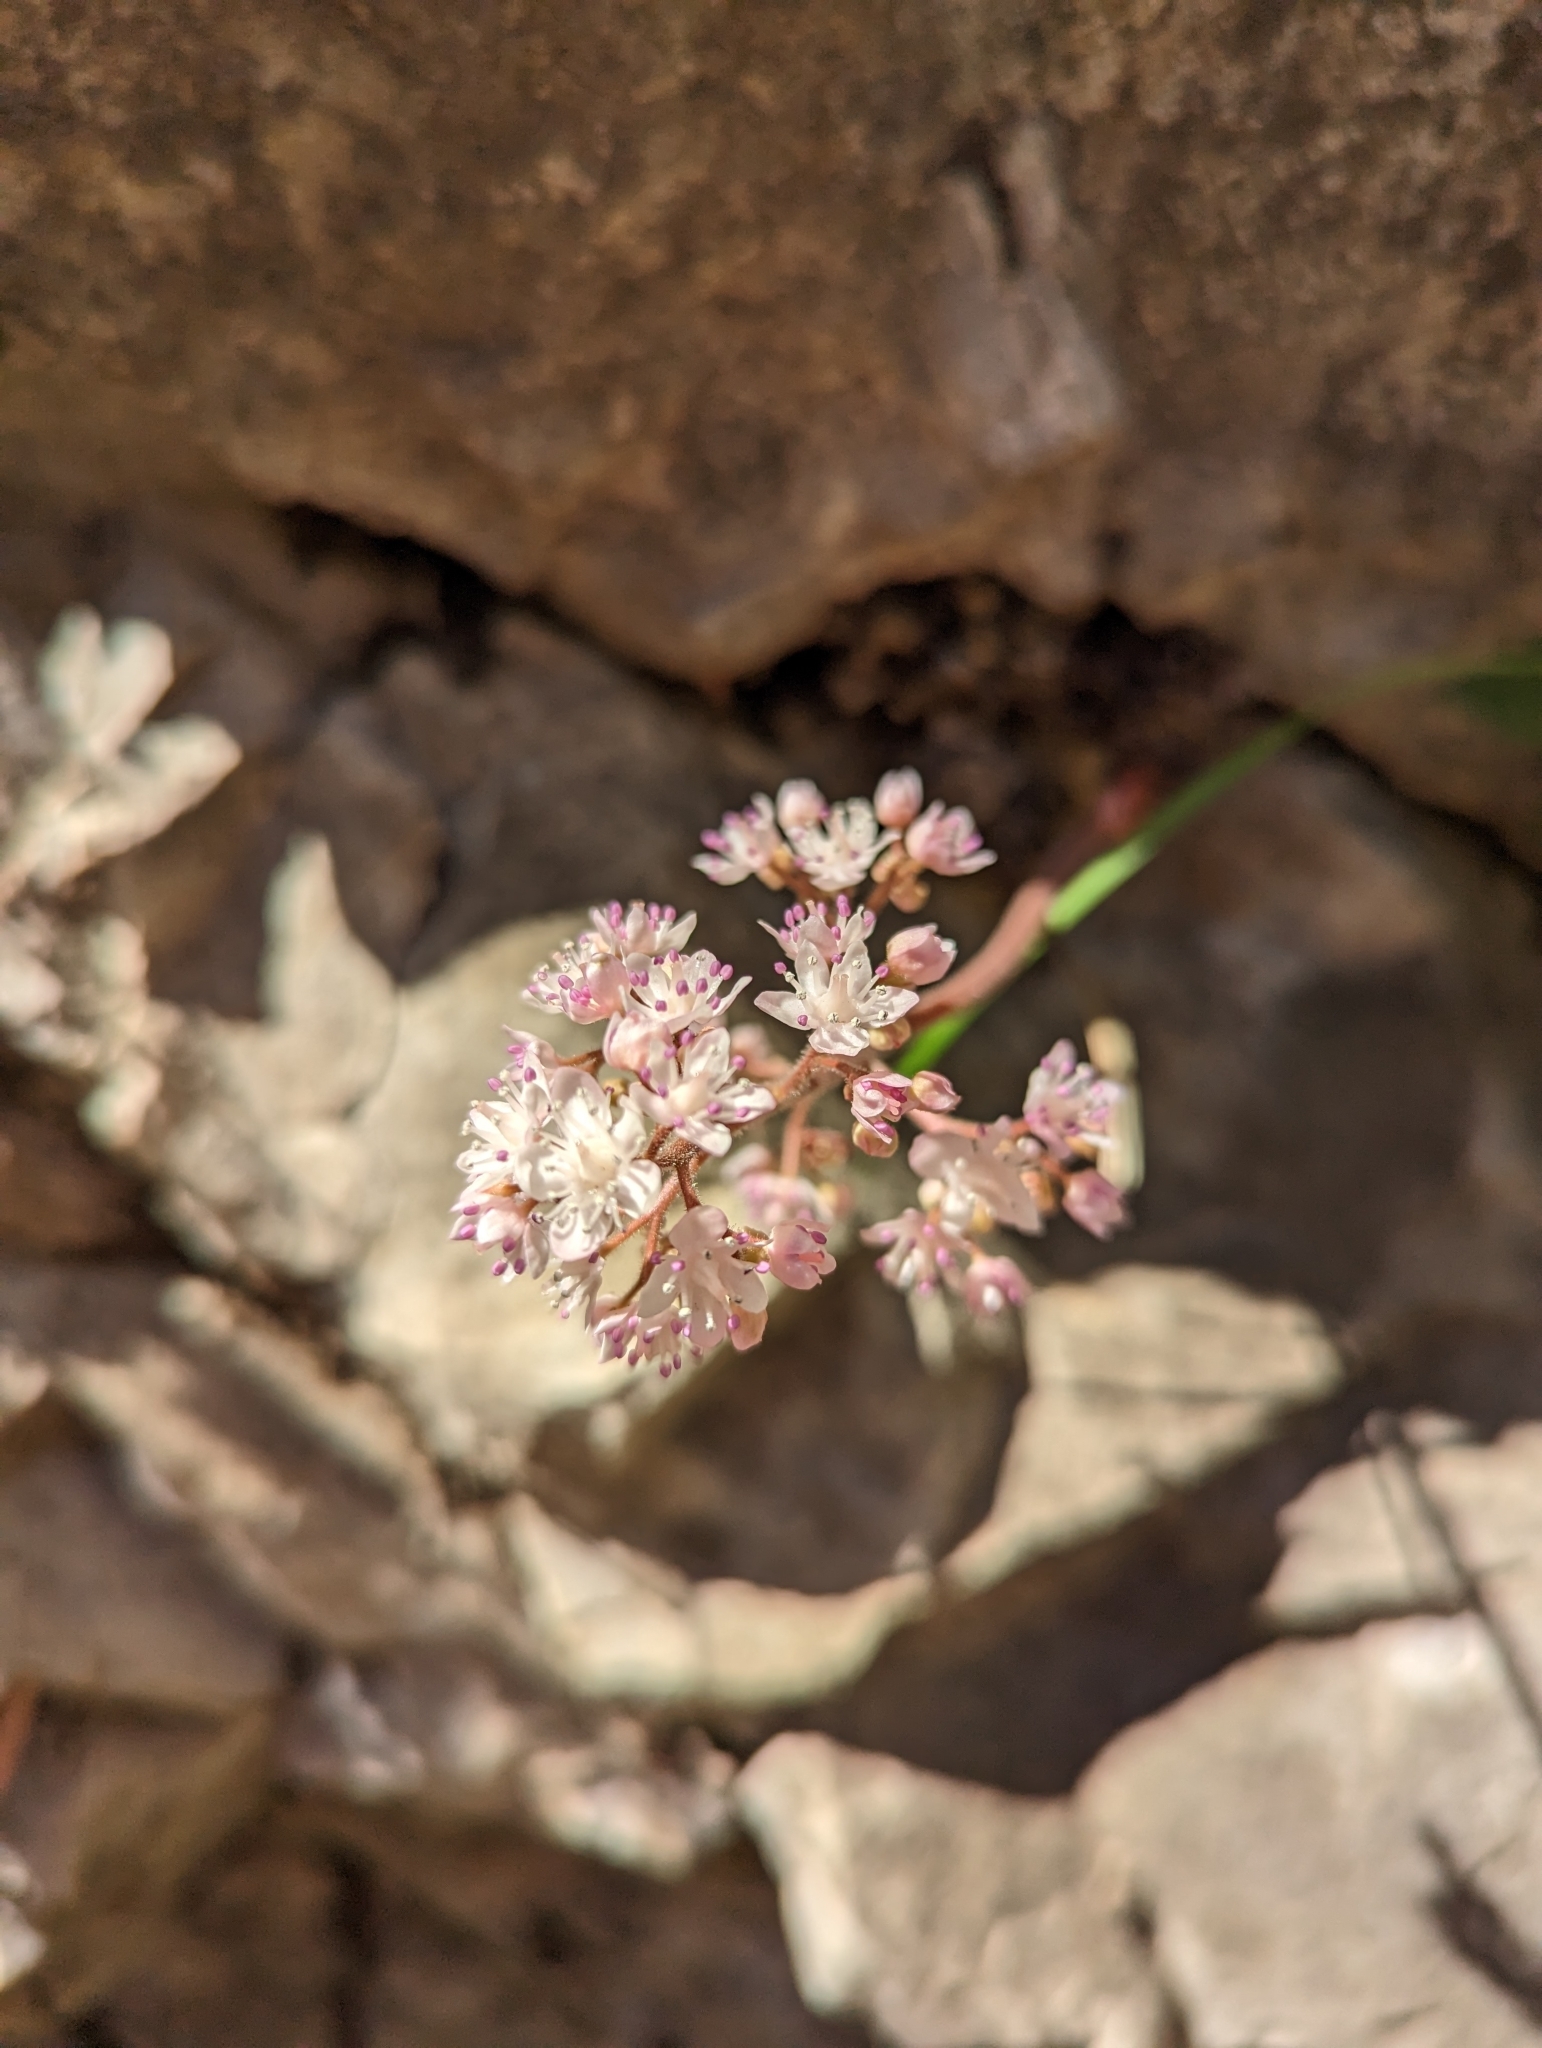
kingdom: Plantae
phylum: Tracheophyta
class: Magnoliopsida
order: Saxifragales
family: Saxifragaceae
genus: Oresitrophe
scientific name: Oresitrophe rupifraga
